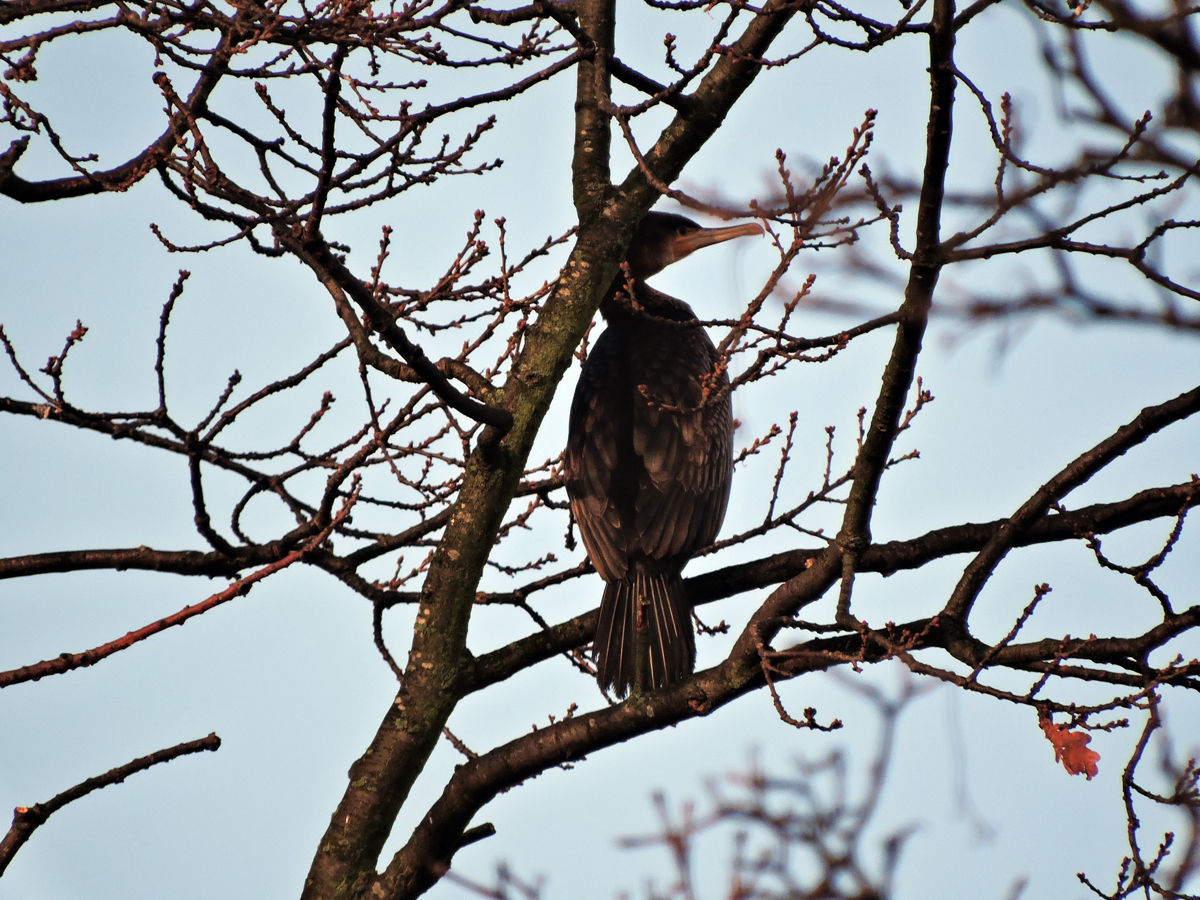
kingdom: Animalia
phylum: Chordata
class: Aves
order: Suliformes
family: Phalacrocoracidae
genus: Phalacrocorax
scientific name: Phalacrocorax carbo
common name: Great cormorant
